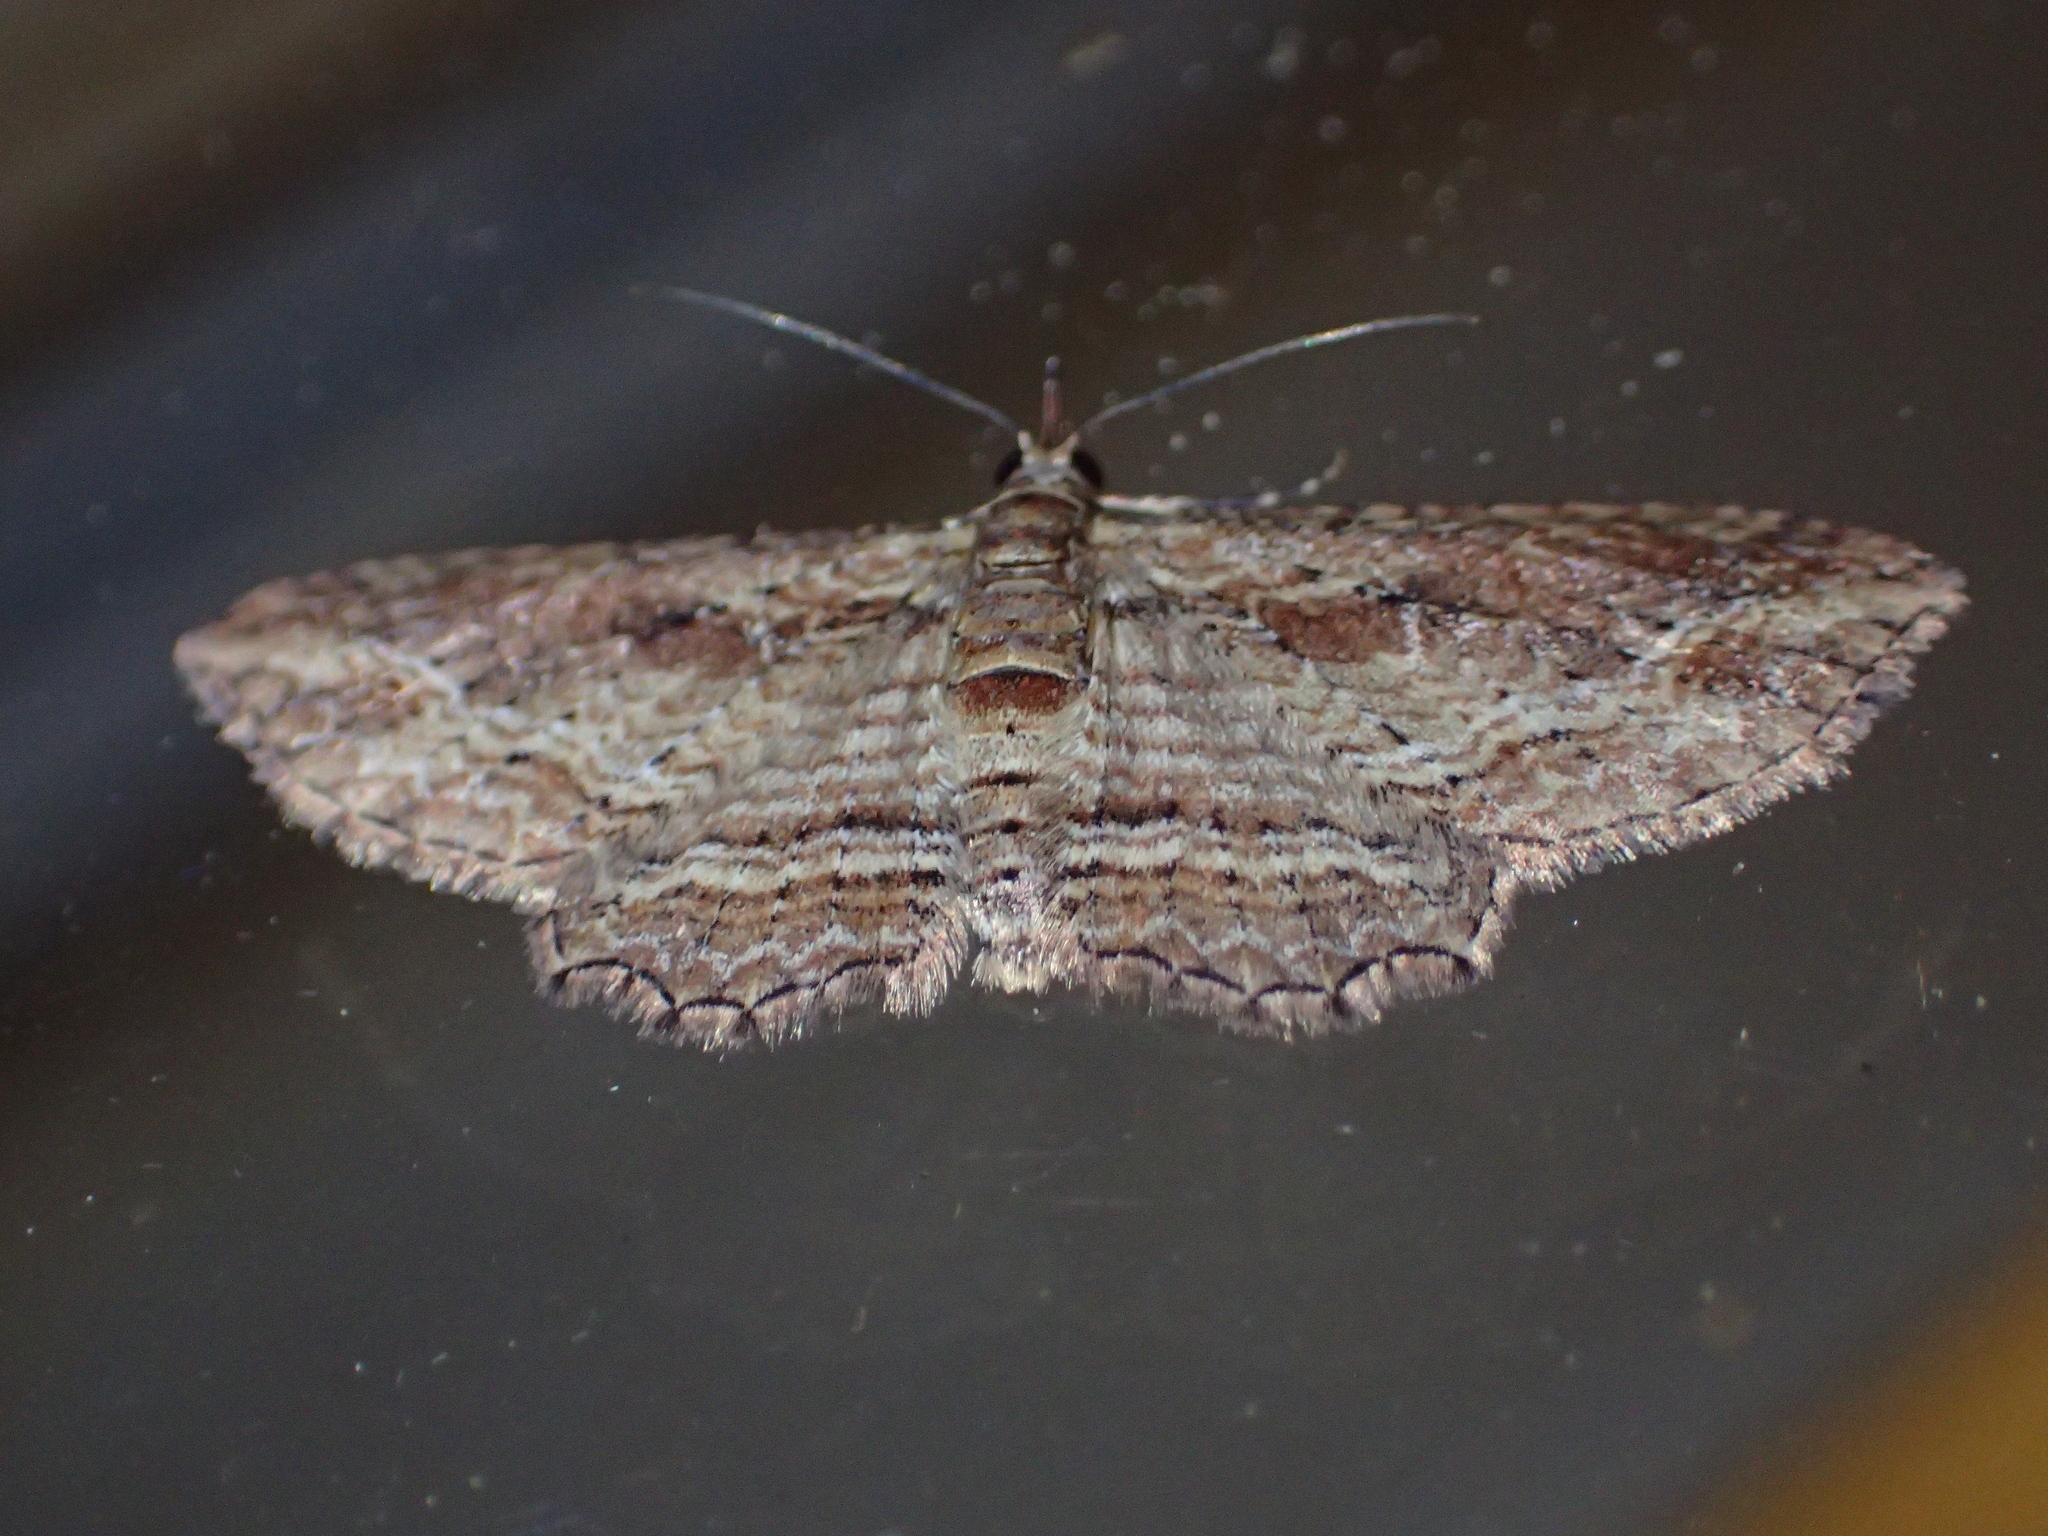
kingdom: Animalia
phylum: Arthropoda
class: Insecta
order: Lepidoptera
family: Geometridae
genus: Chloroclystis
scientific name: Chloroclystis filata
